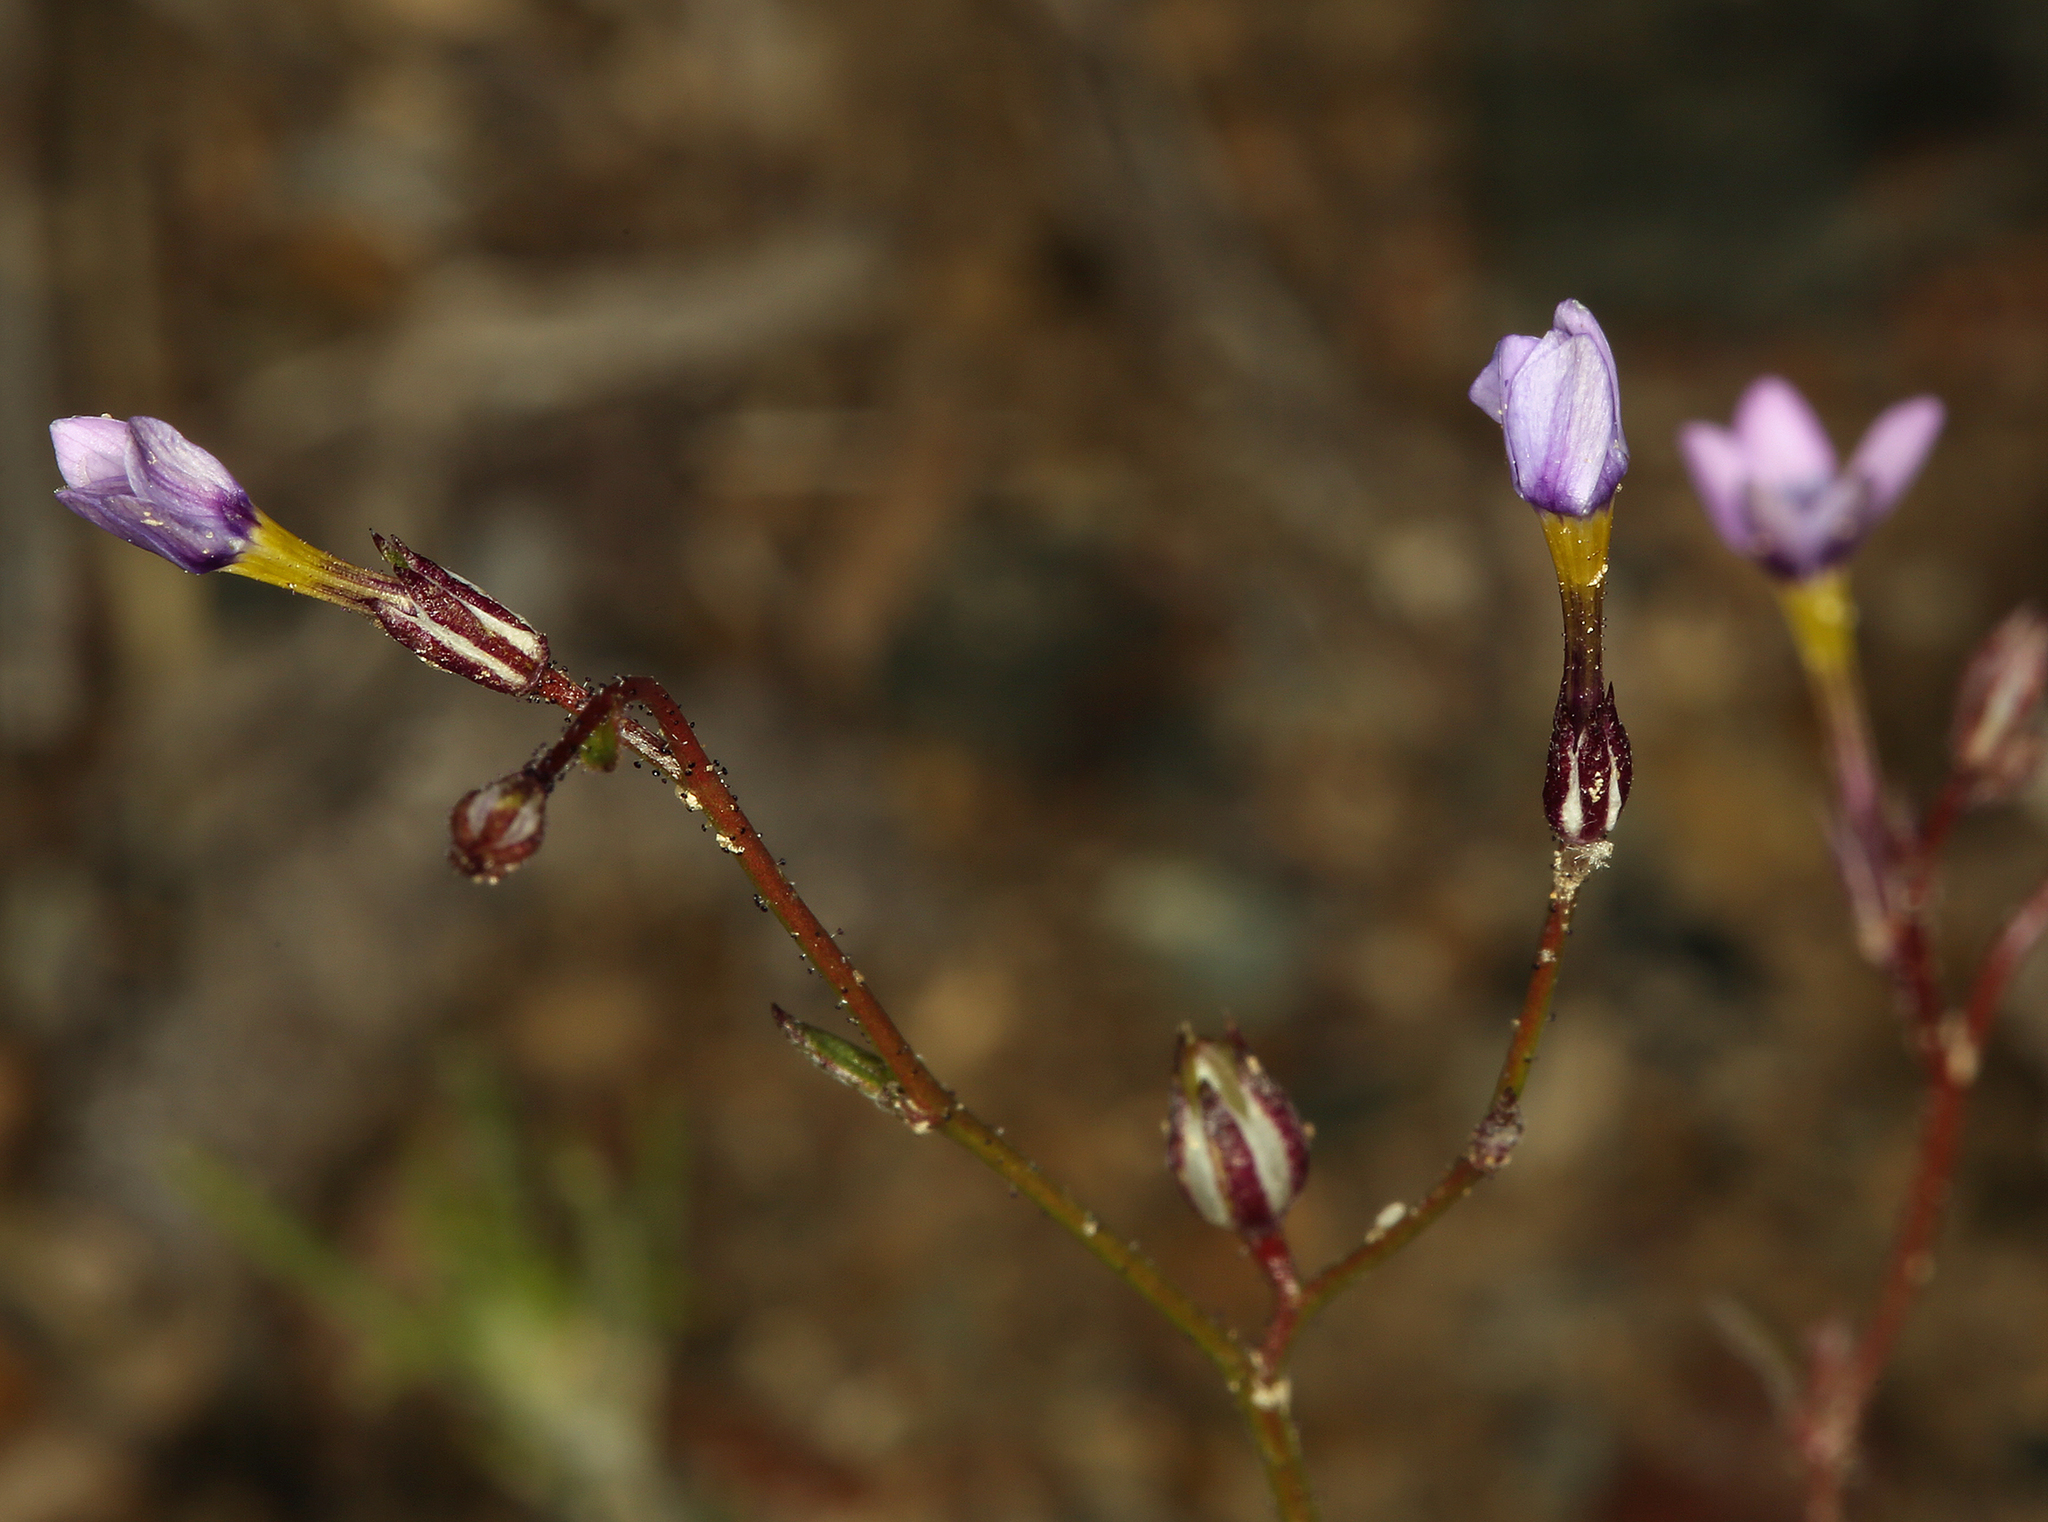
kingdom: Plantae
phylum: Tracheophyta
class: Magnoliopsida
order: Ericales
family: Polemoniaceae
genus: Gilia
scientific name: Gilia ophthalmoides
